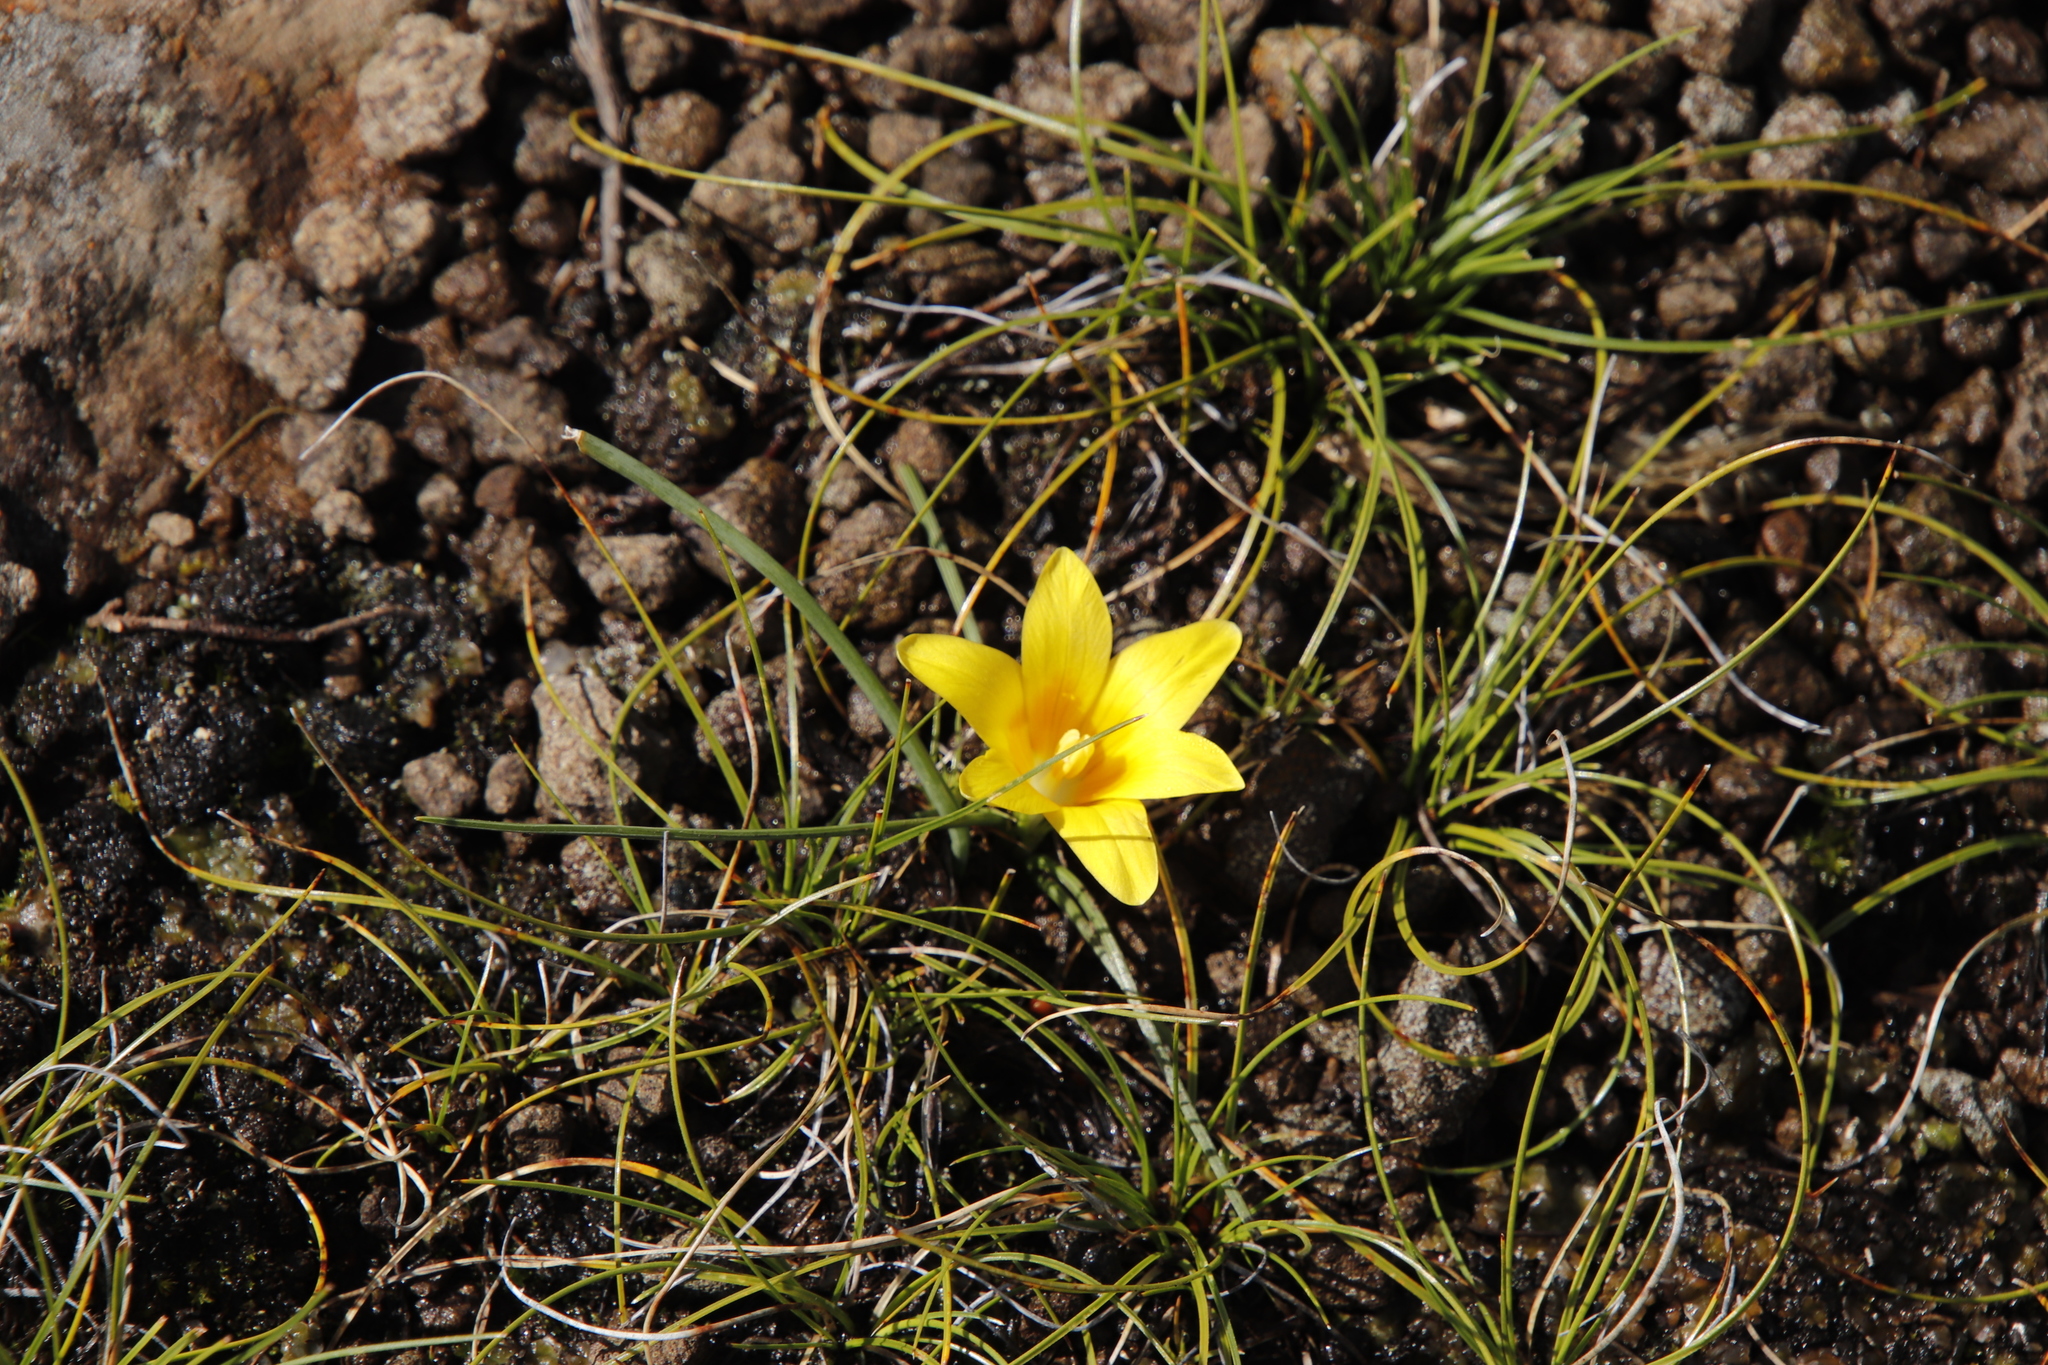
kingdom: Plantae
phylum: Tracheophyta
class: Liliopsida
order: Asparagales
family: Iridaceae
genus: Romulea
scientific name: Romulea macowanii
